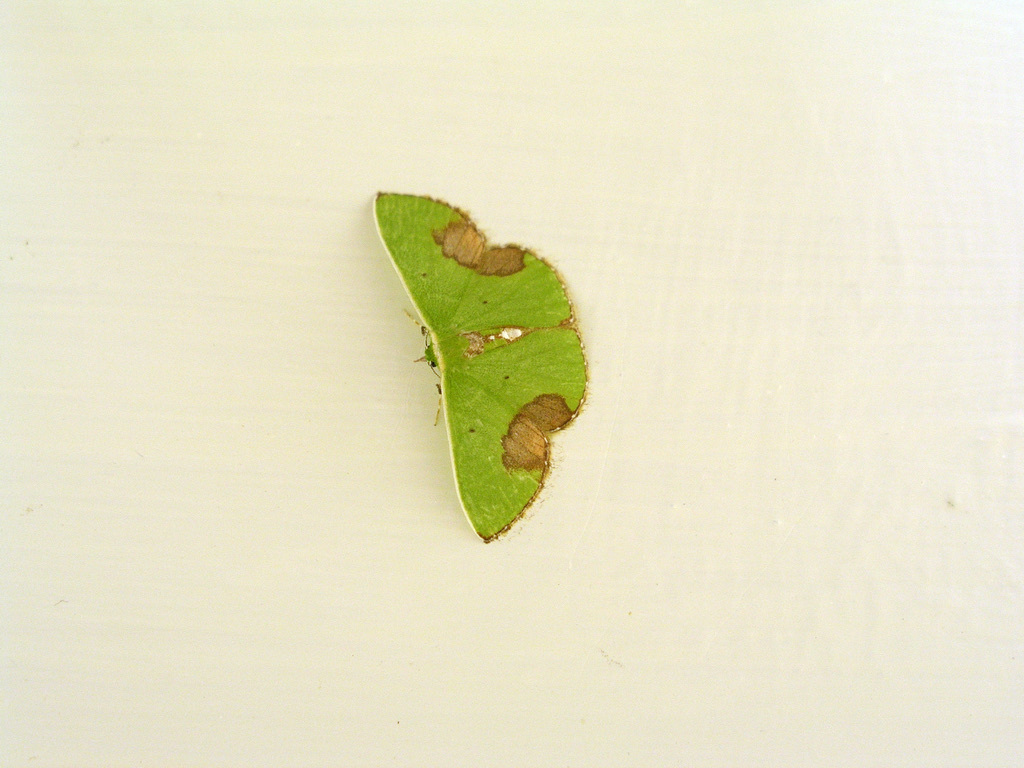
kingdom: Animalia
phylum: Arthropoda
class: Insecta
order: Lepidoptera
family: Geometridae
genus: Comibaena
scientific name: Comibaena mariae
